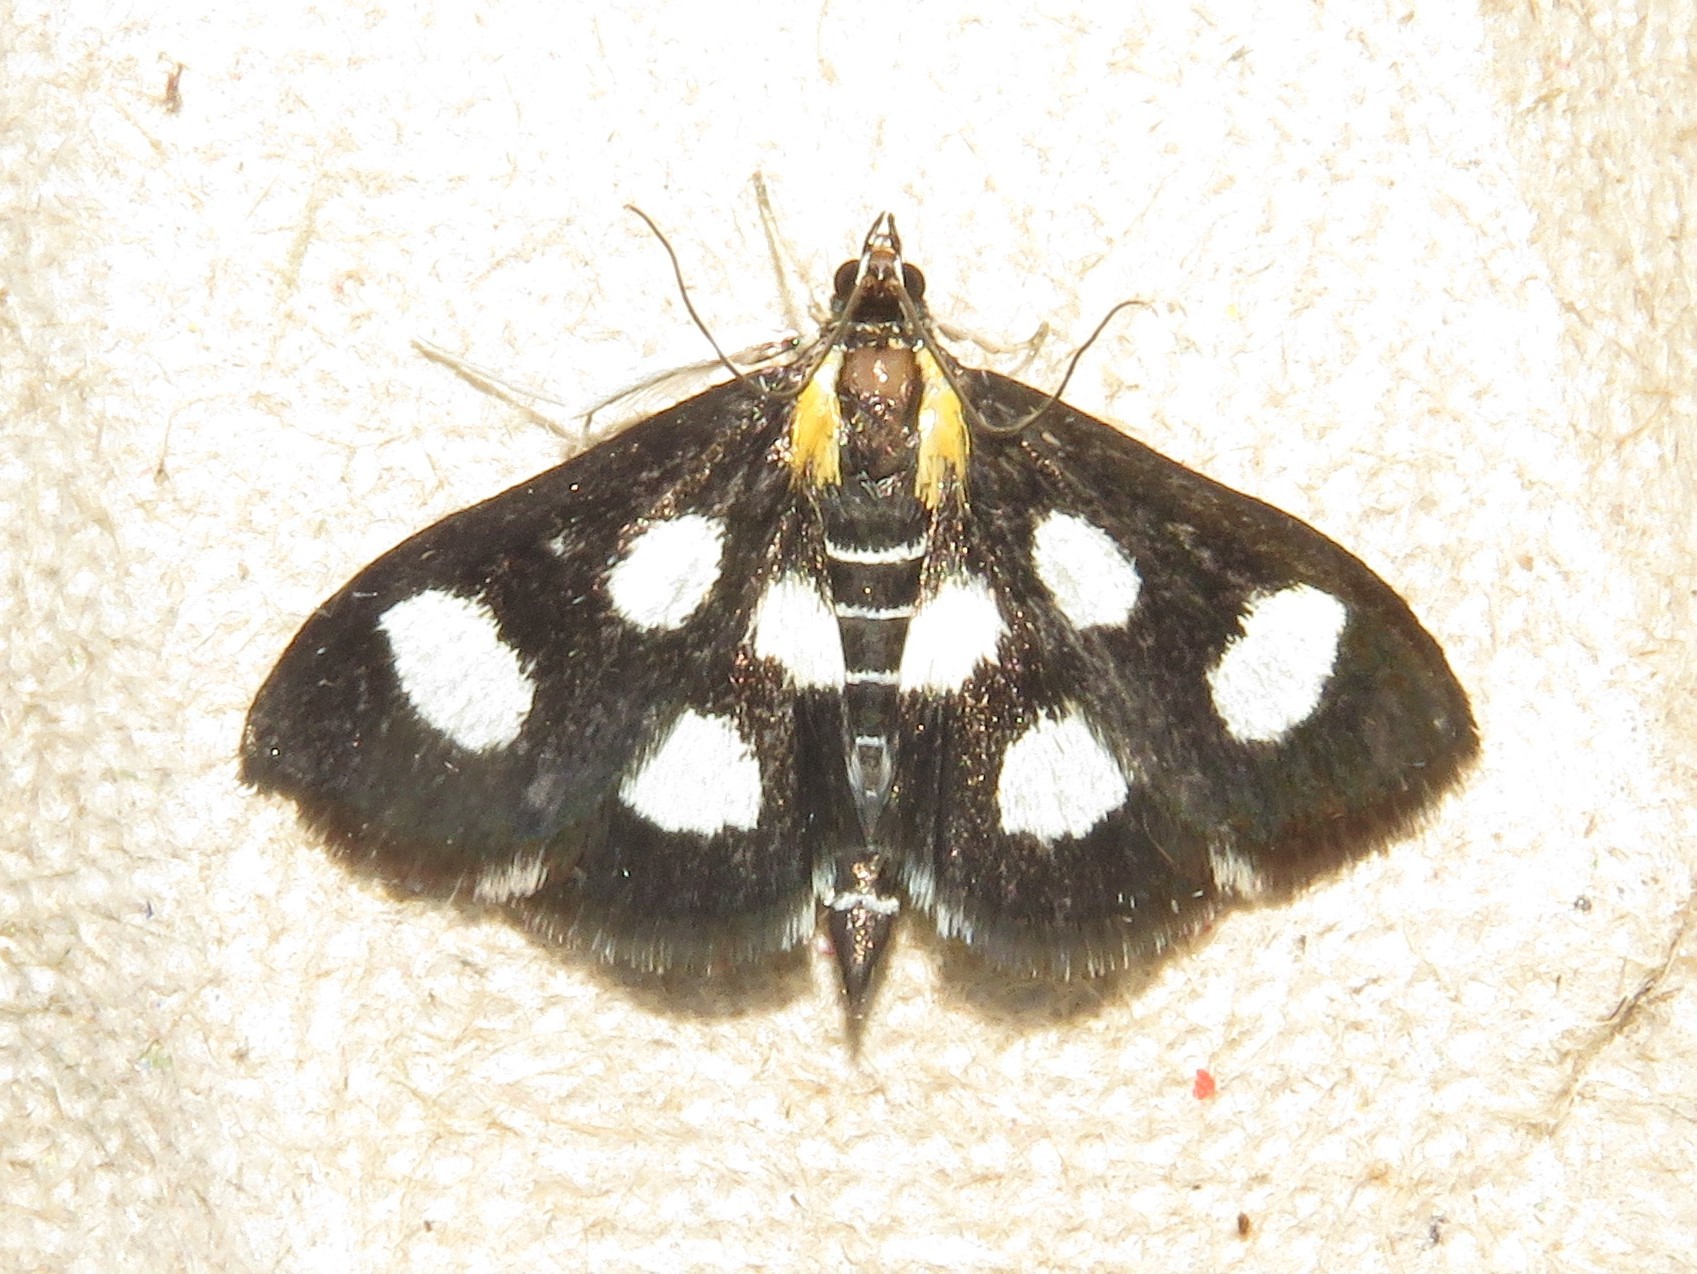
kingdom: Animalia
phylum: Arthropoda
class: Insecta
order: Lepidoptera
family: Crambidae
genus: Anania
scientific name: Anania funebris
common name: White-spotted sable moth
